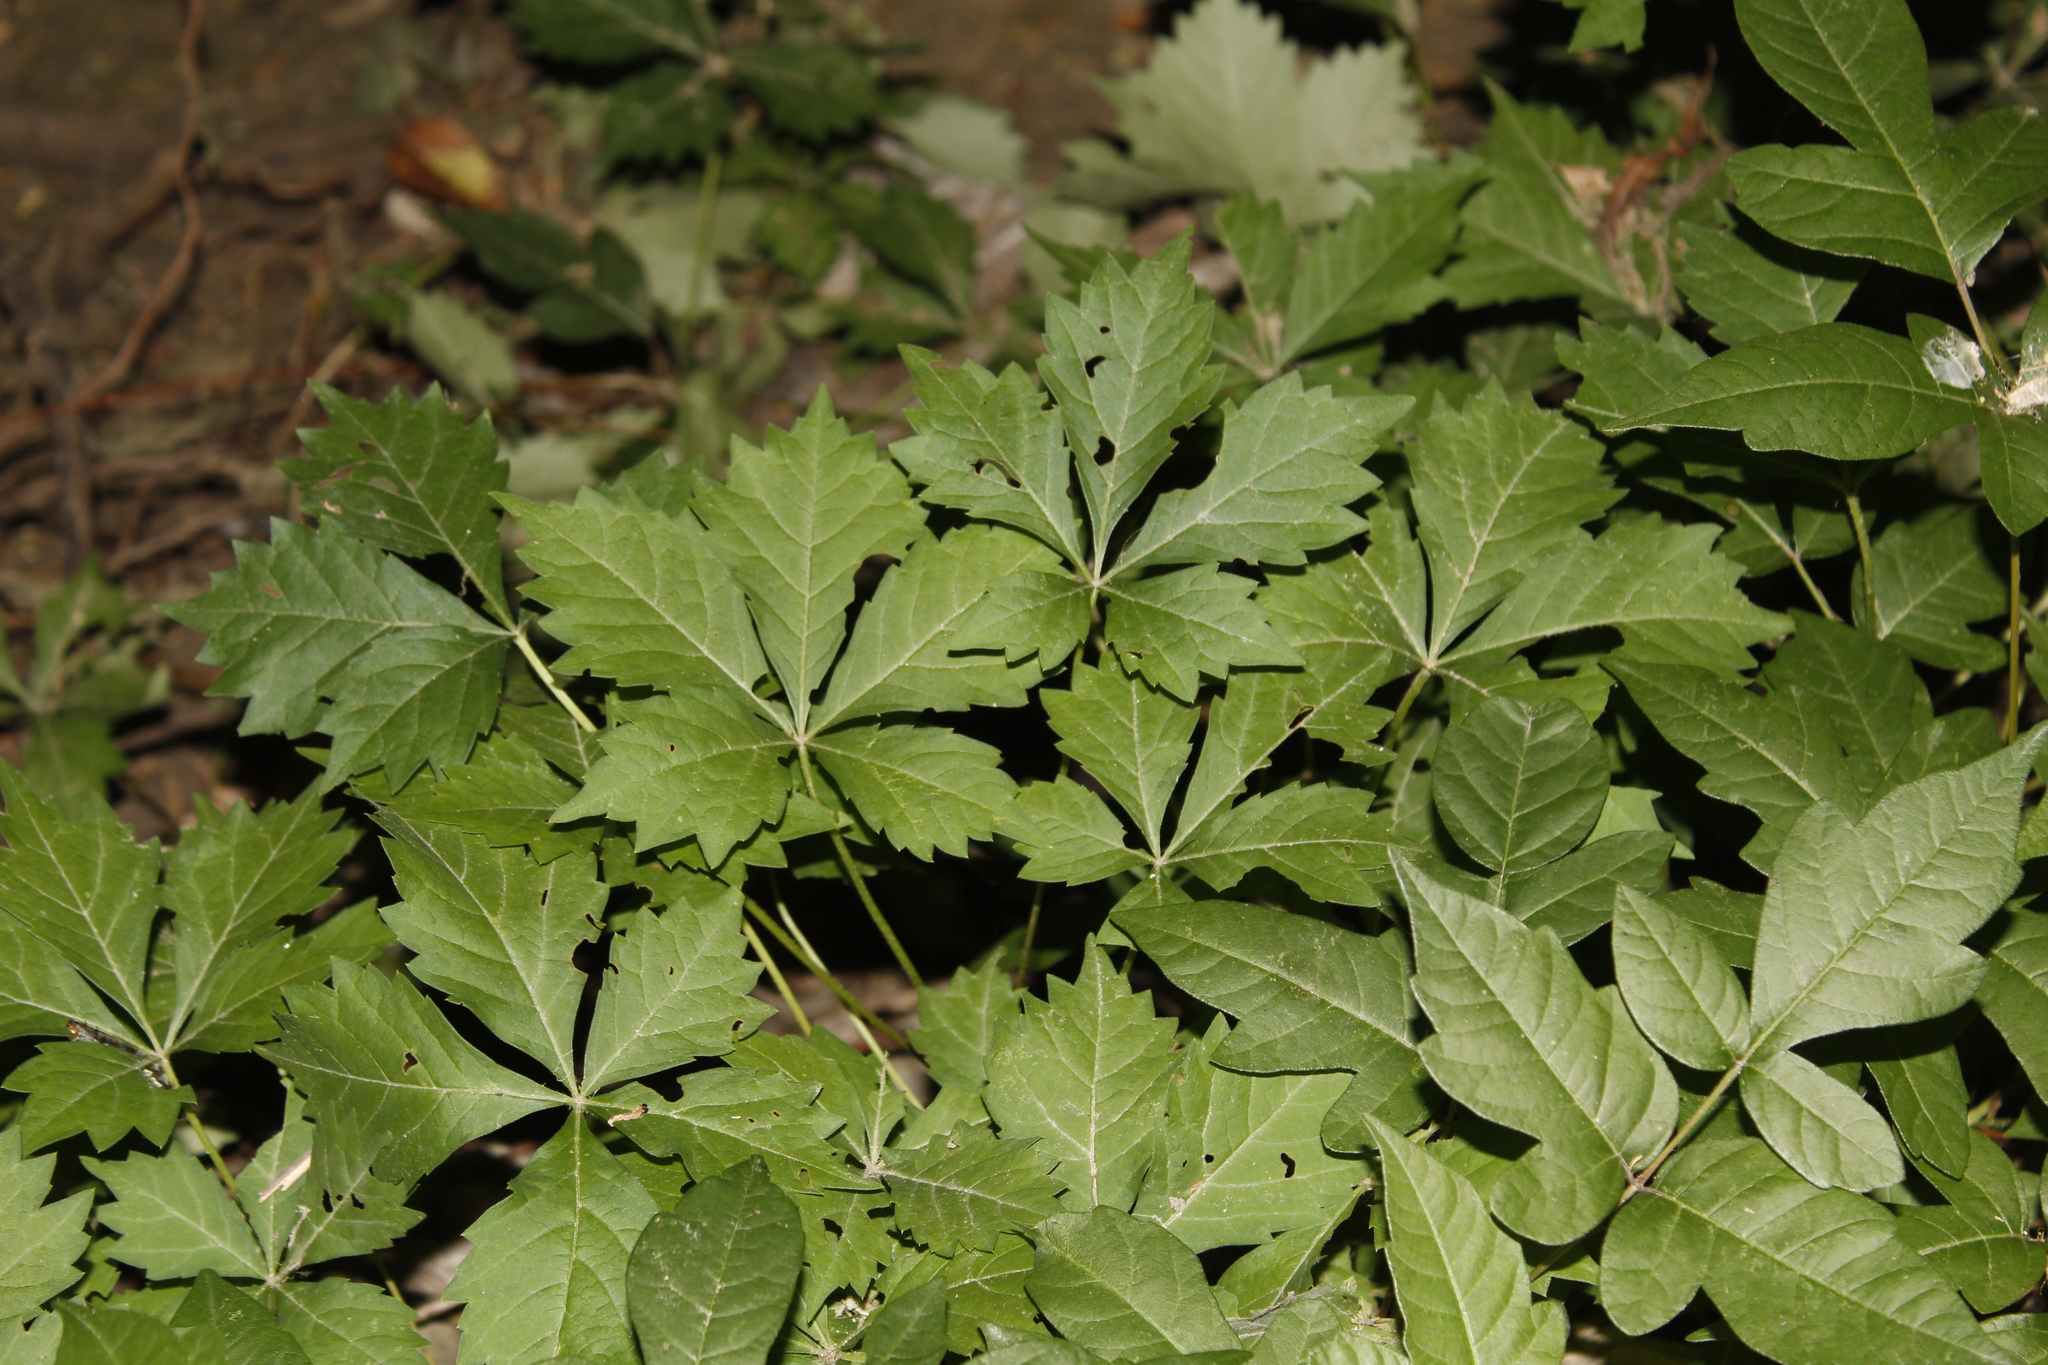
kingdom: Plantae
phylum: Tracheophyta
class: Magnoliopsida
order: Vitales
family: Vitaceae
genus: Parthenocissus
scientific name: Parthenocissus quinquefolia
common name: Virginia-creeper
